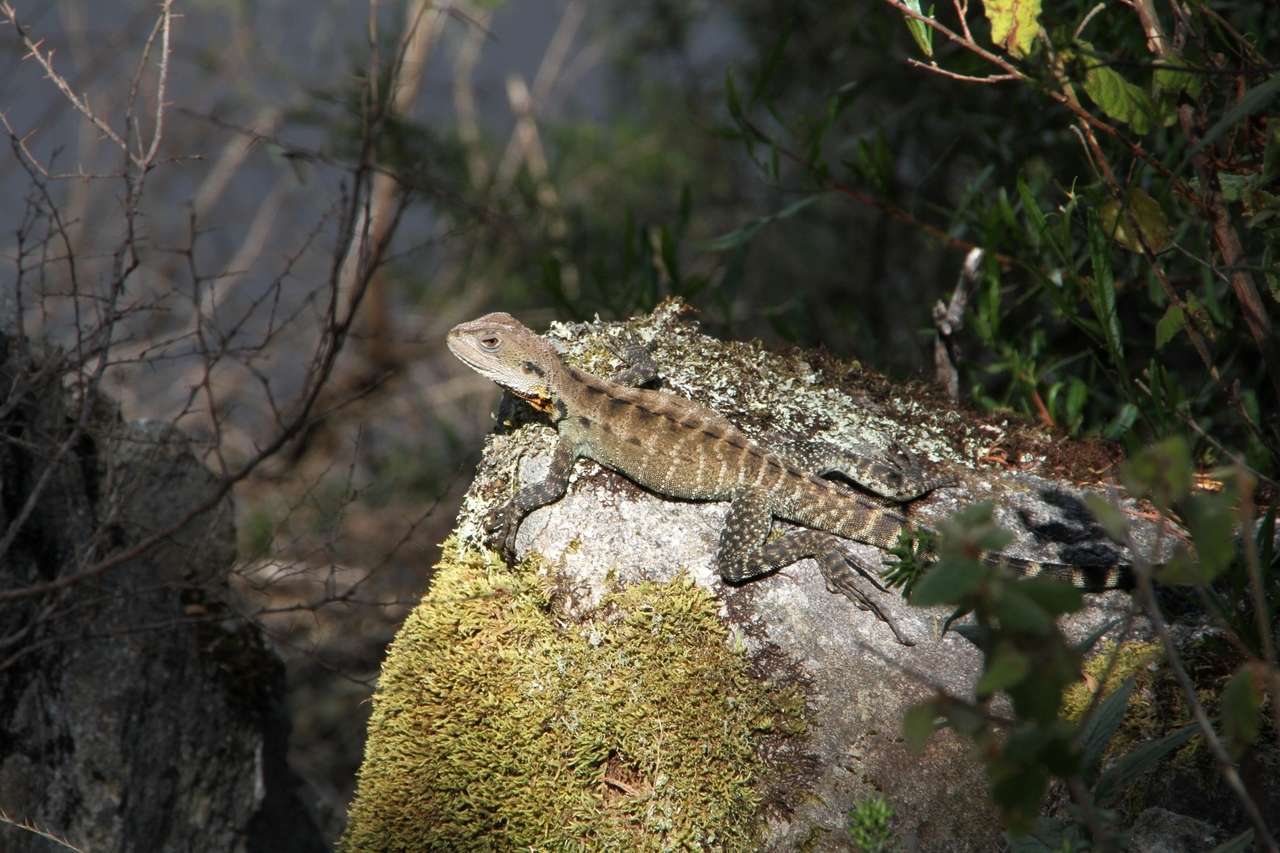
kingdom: Animalia
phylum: Chordata
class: Squamata
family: Agamidae
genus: Intellagama
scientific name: Intellagama lesueurii
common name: Eastern water dragon
